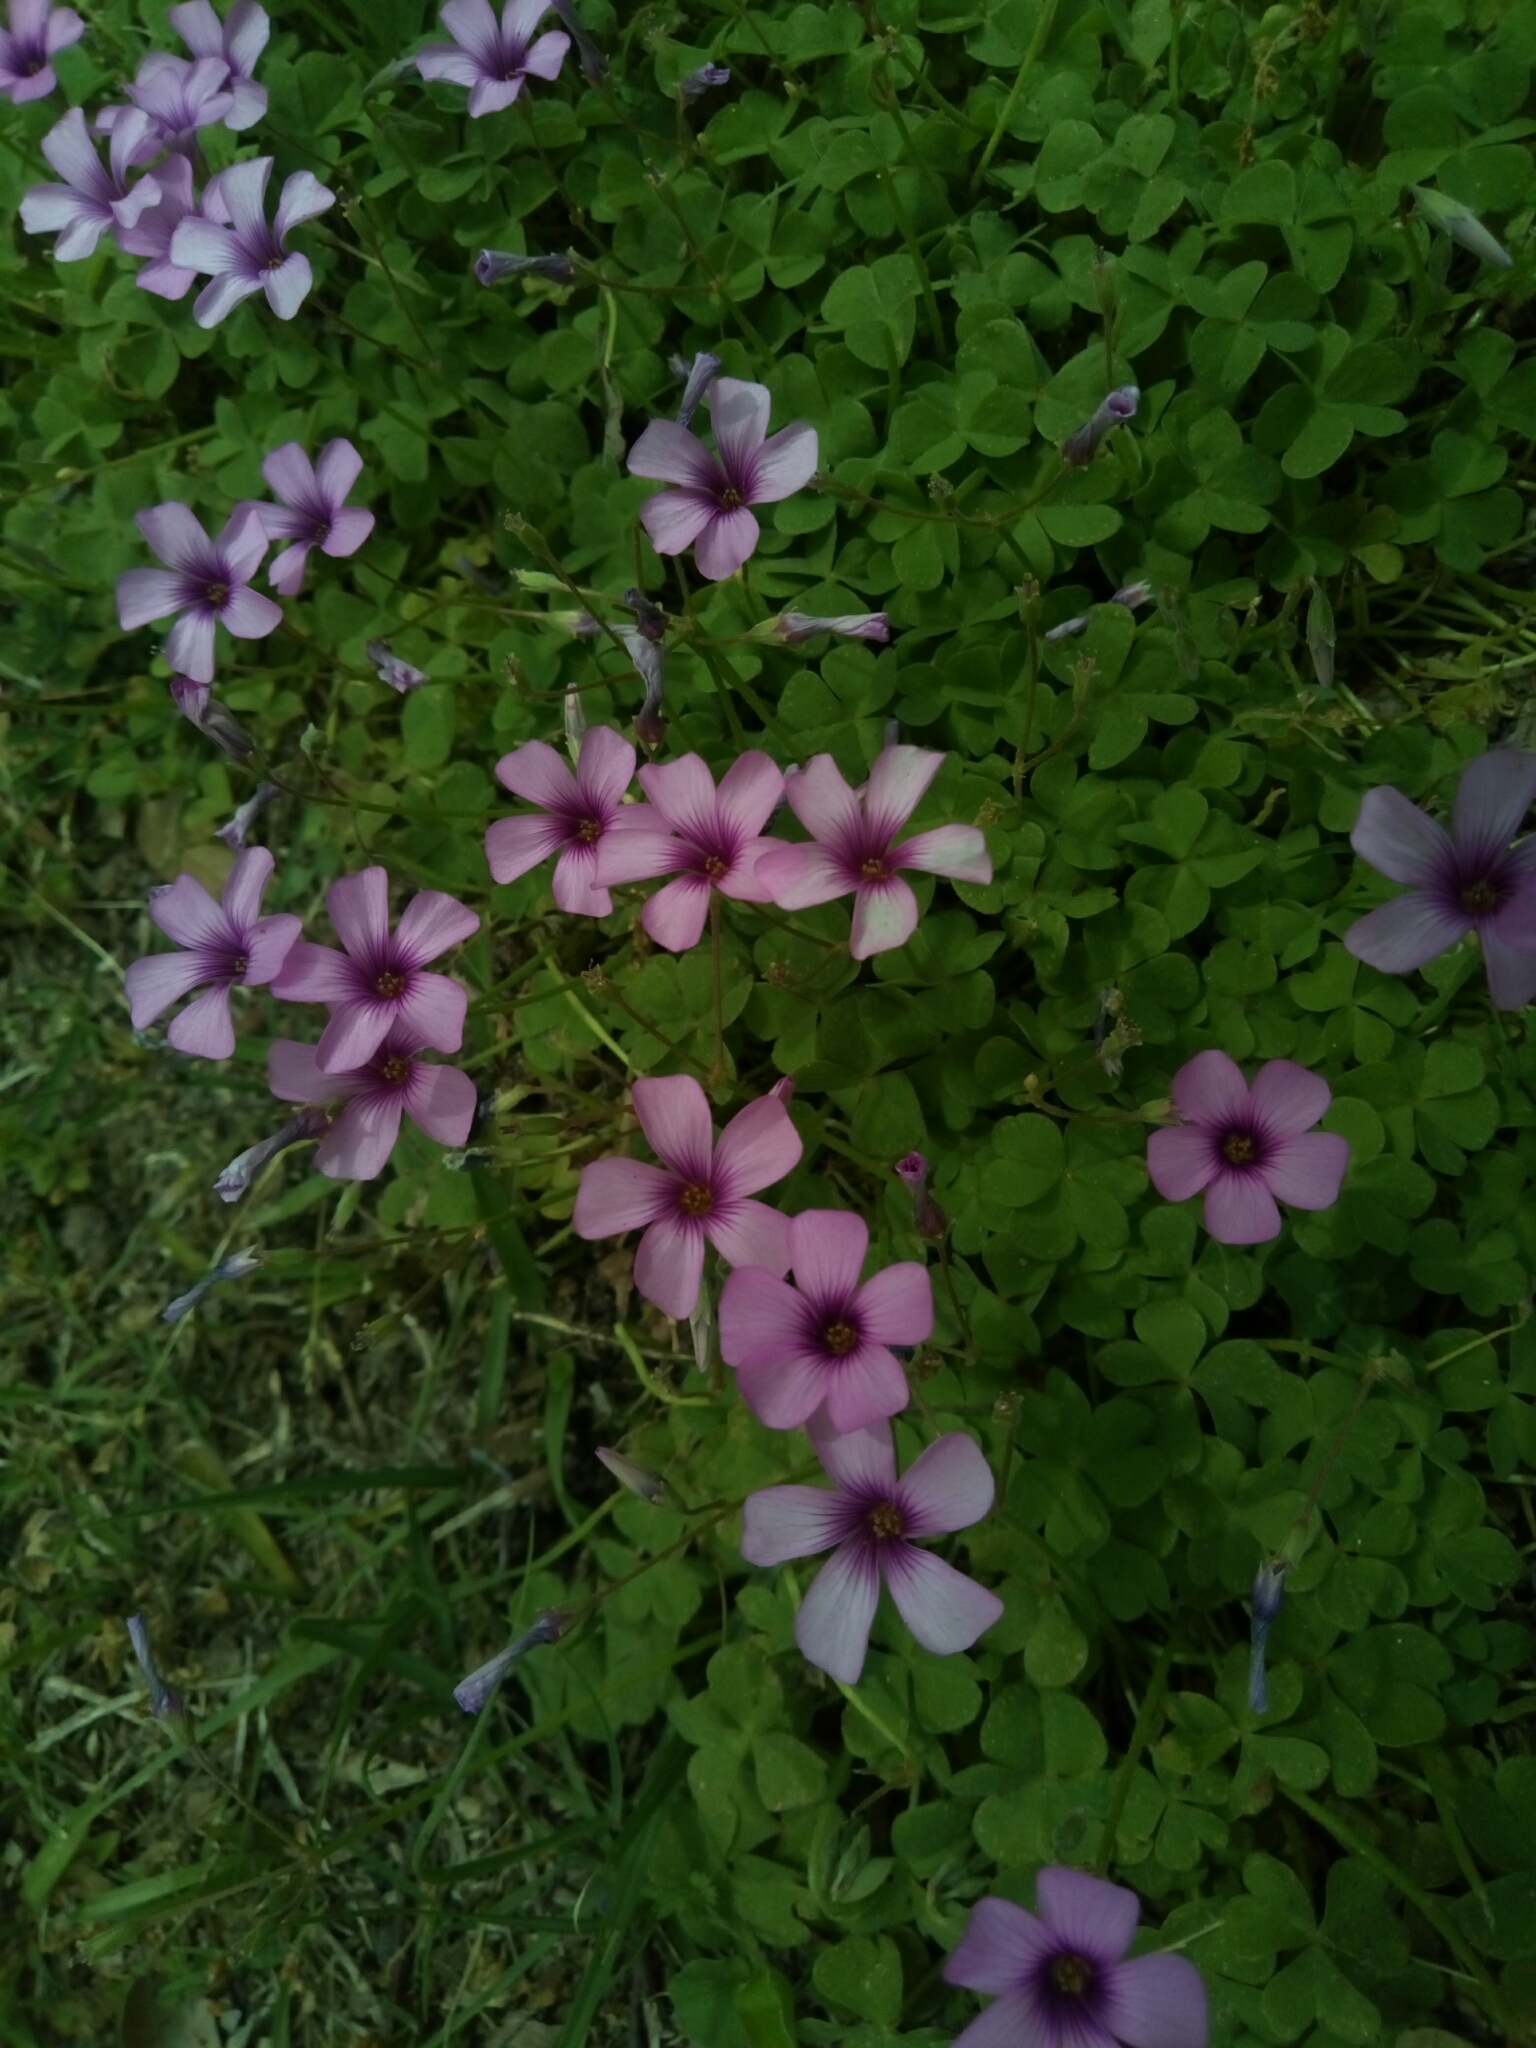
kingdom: Plantae
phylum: Tracheophyta
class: Magnoliopsida
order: Oxalidales
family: Oxalidaceae
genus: Oxalis
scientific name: Oxalis articulata
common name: Pink-sorrel
